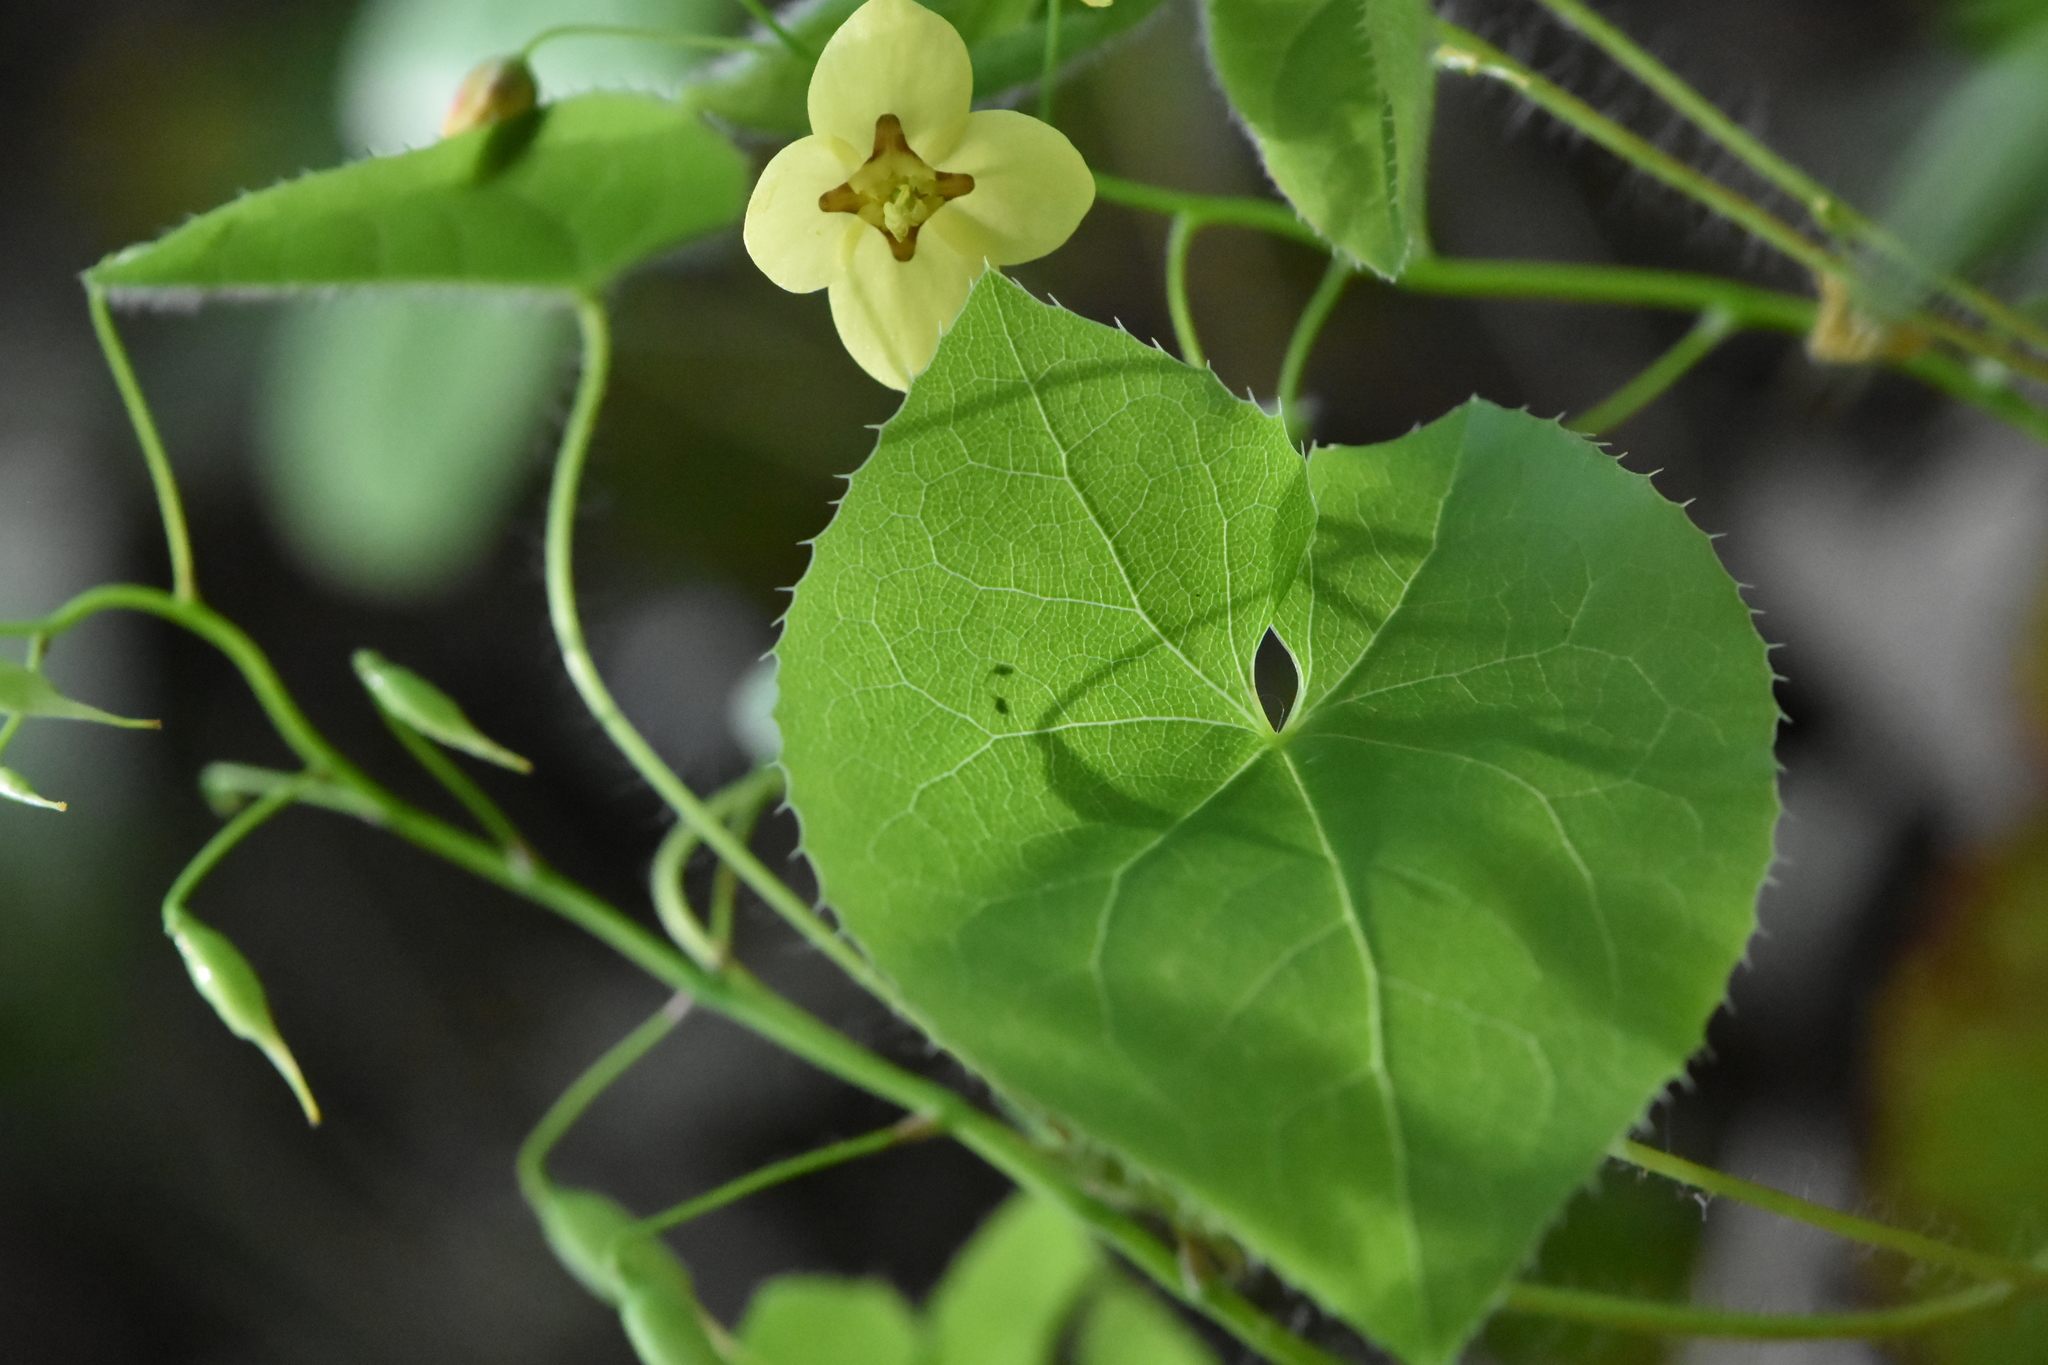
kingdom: Plantae
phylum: Tracheophyta
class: Magnoliopsida
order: Ranunculales
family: Berberidaceae
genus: Epimedium
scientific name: Epimedium pinnatum
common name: Caucasian barrenwort
